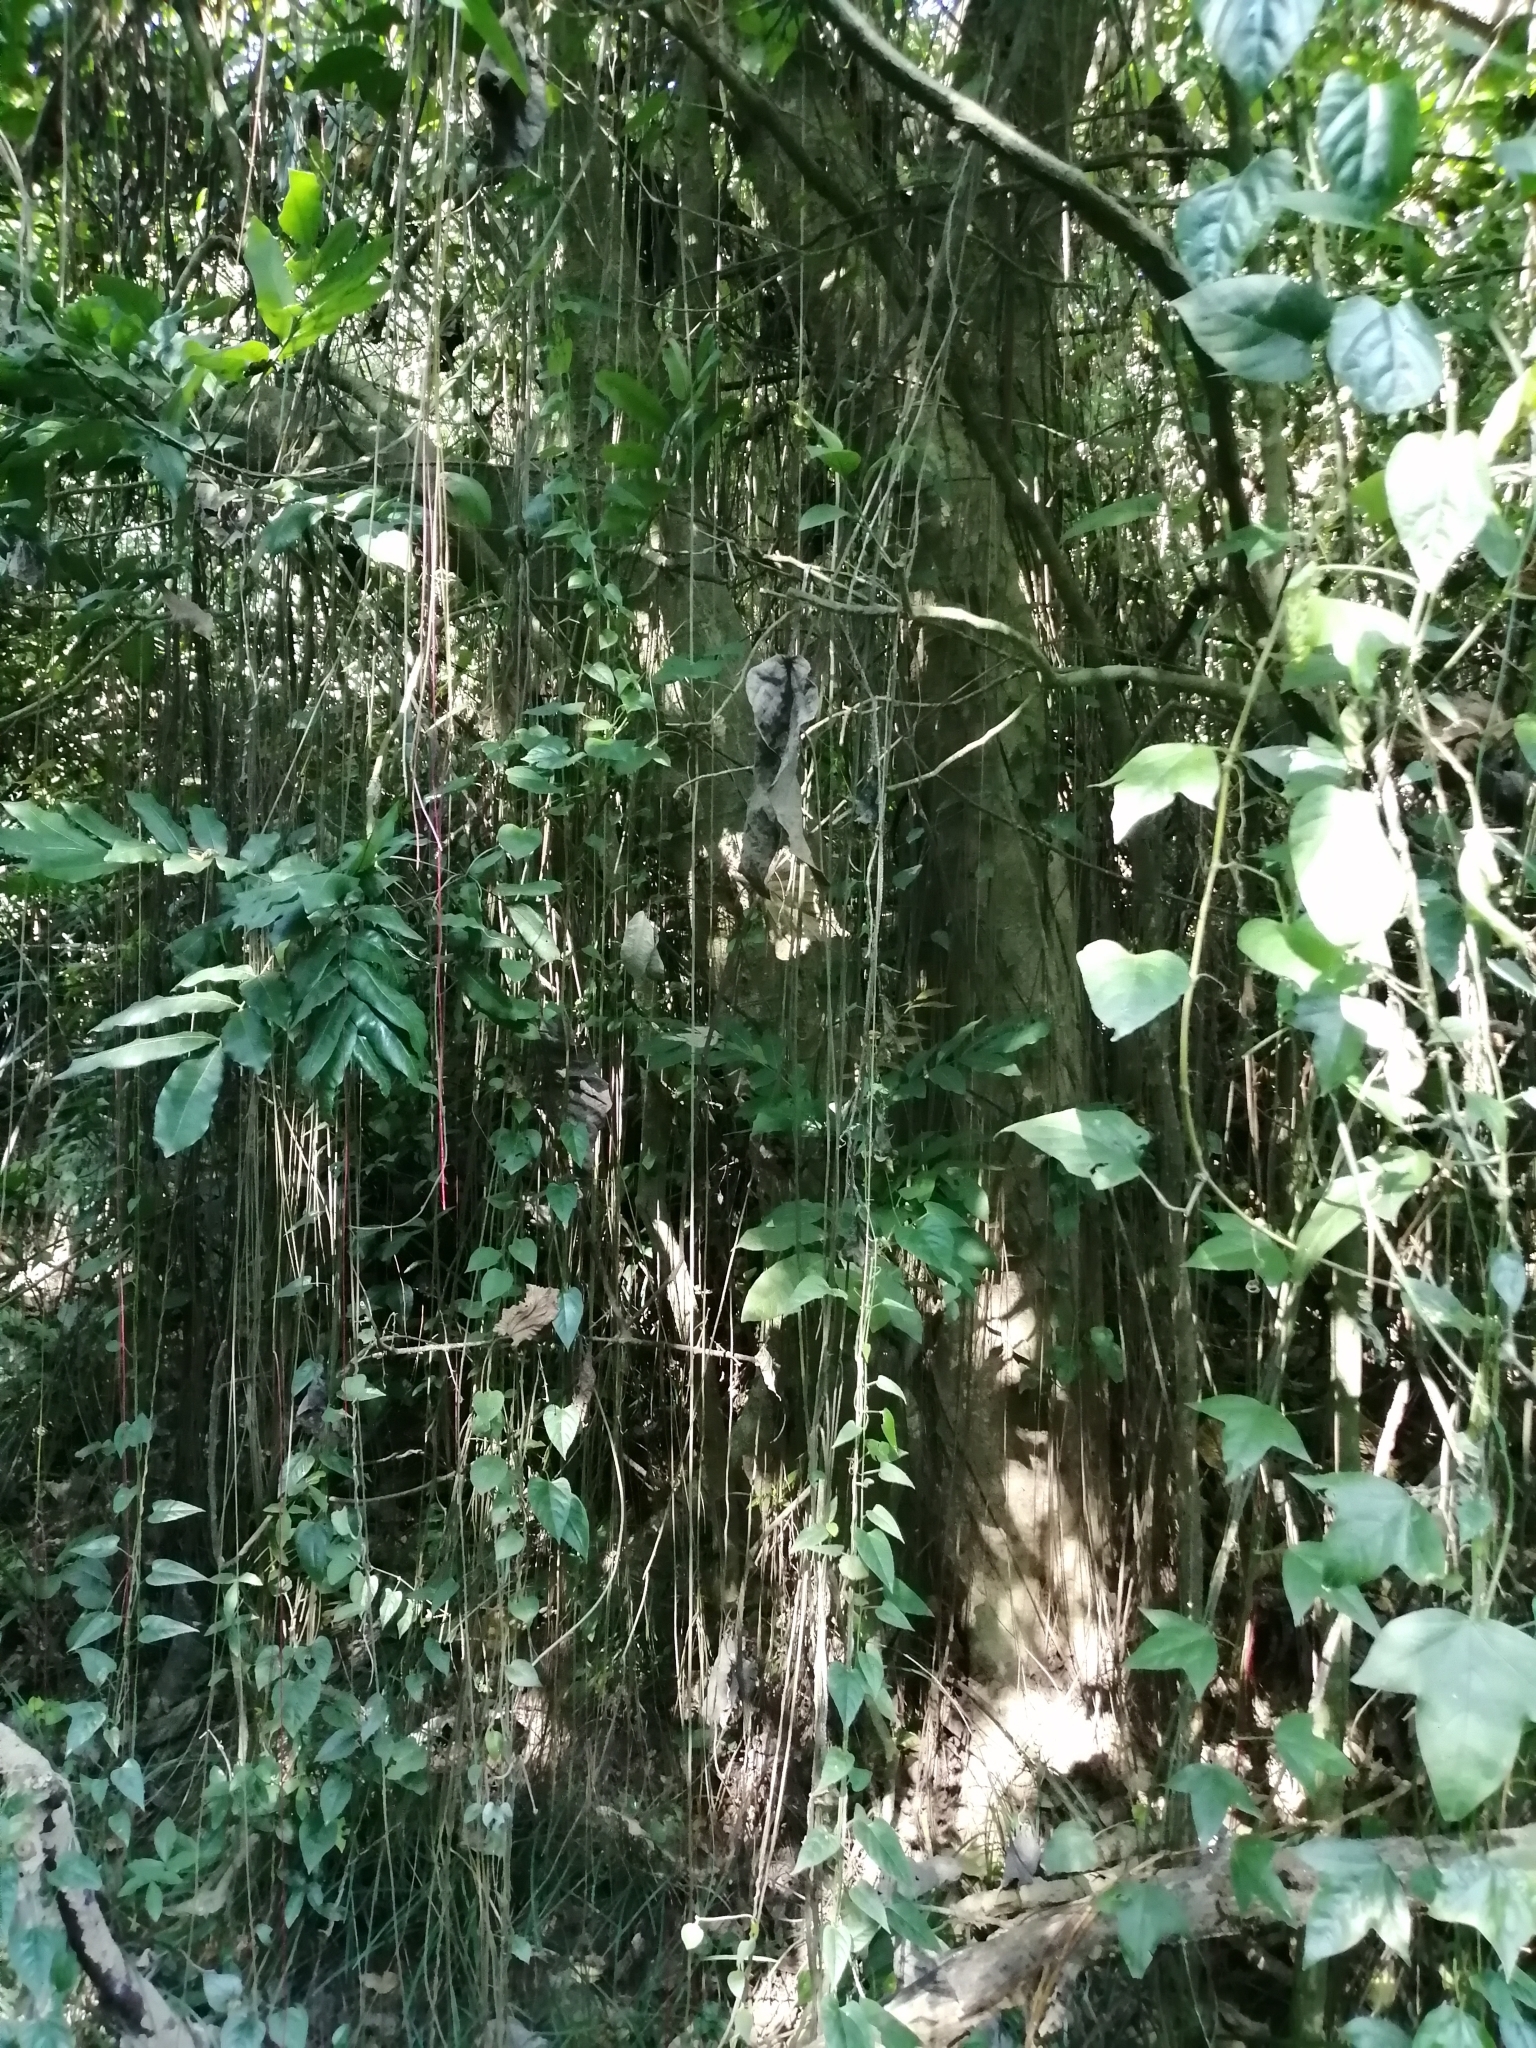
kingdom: Plantae
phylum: Tracheophyta
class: Magnoliopsida
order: Vitales
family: Vitaceae
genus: Cissus
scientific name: Cissus verticillata
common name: Princess vine
